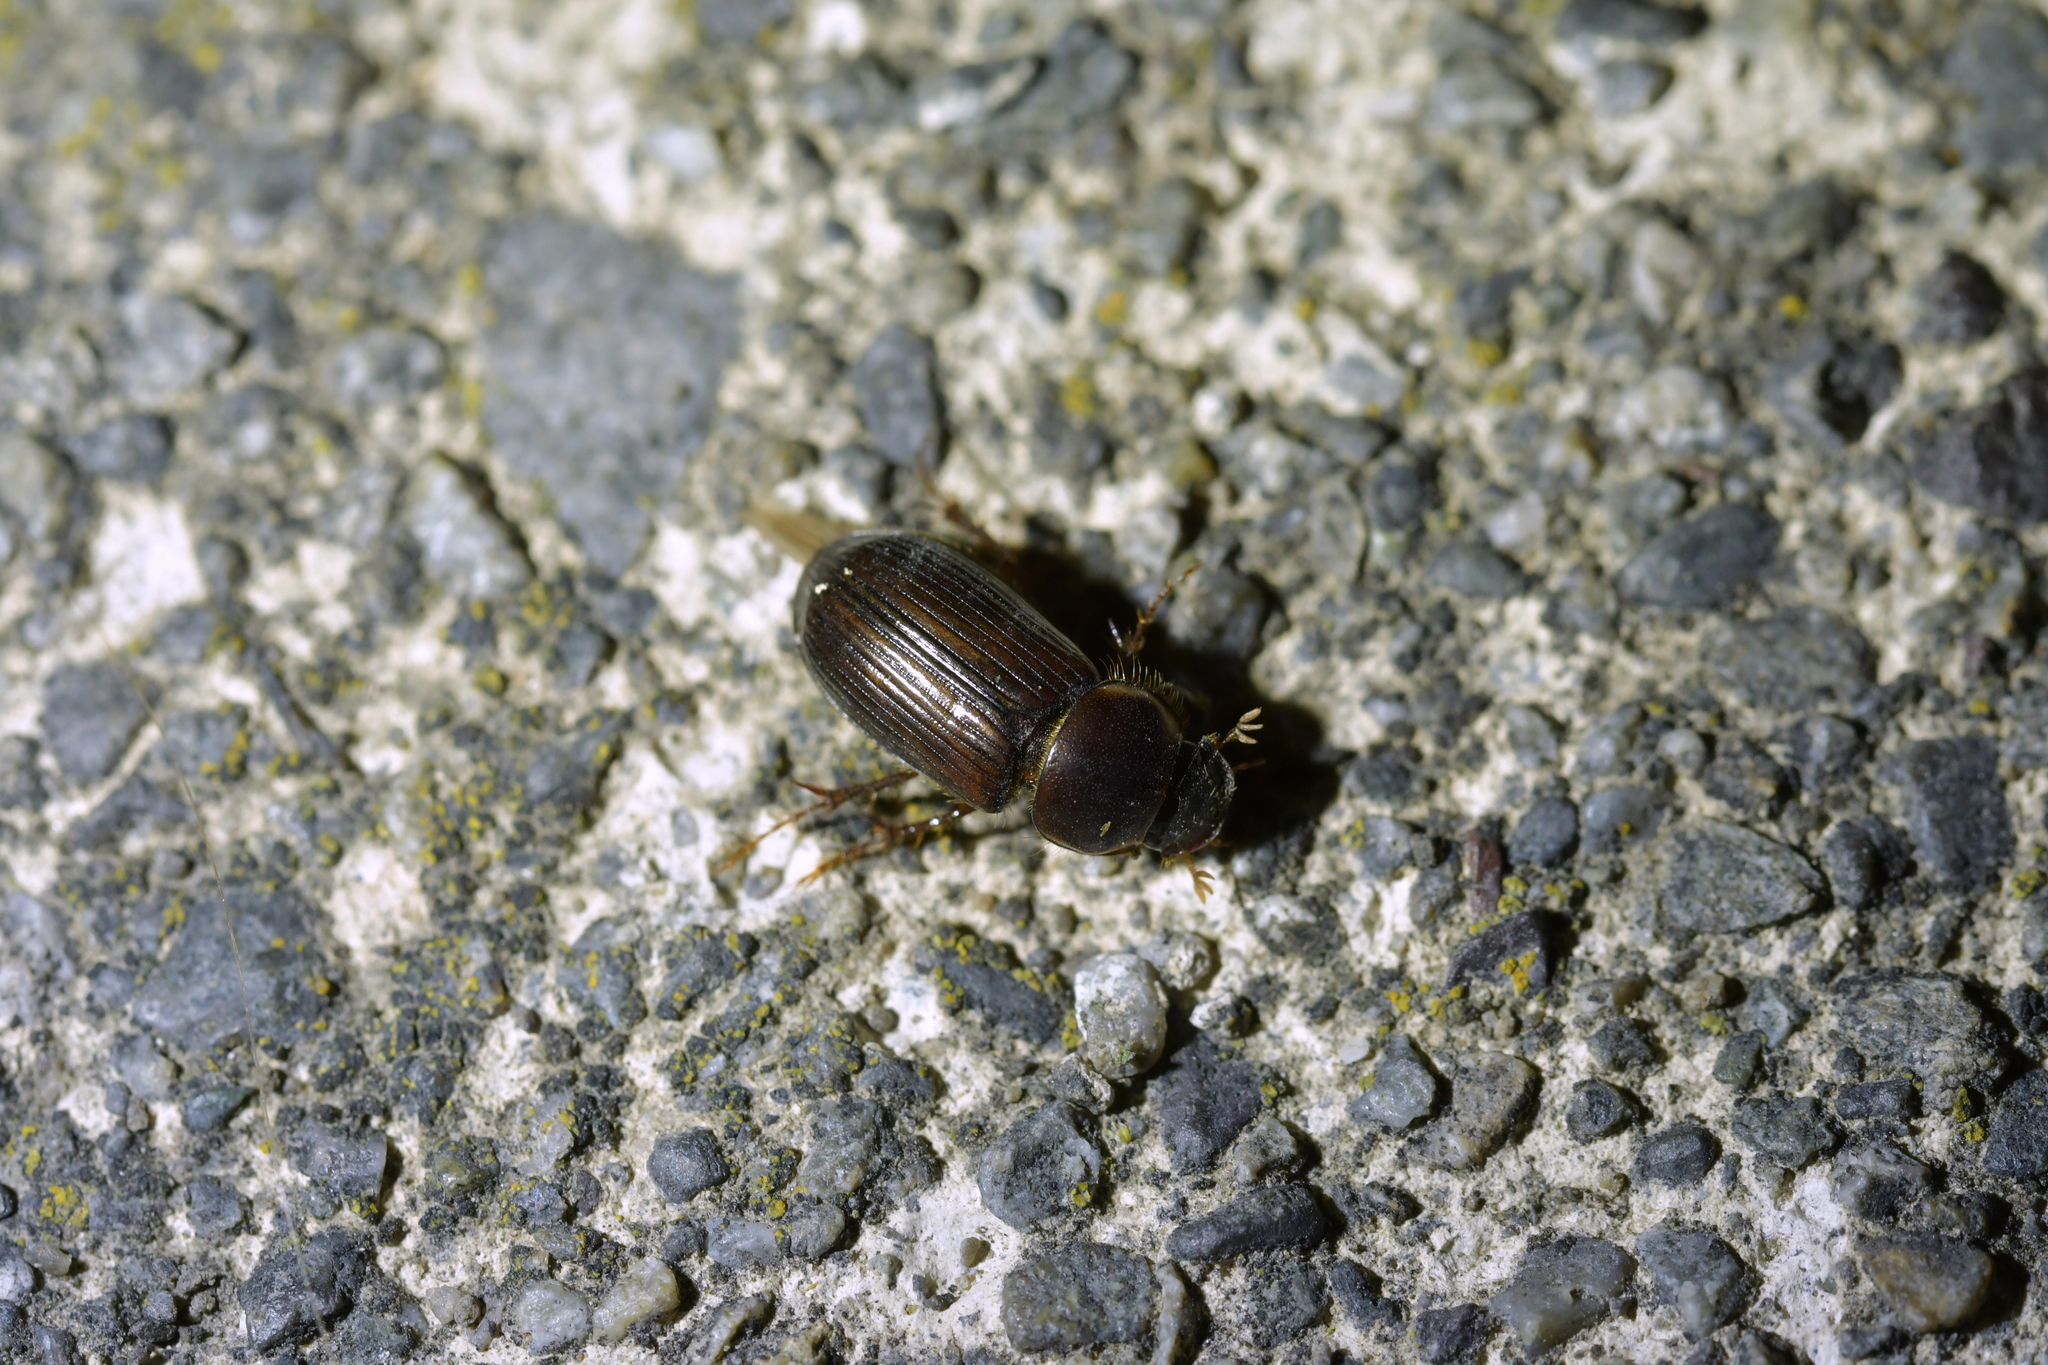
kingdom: Animalia
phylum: Arthropoda
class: Insecta
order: Coleoptera
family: Scarabaeidae
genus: Acrossidius
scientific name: Acrossidius tasmaniae
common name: Black-headed pasture cockchafer
